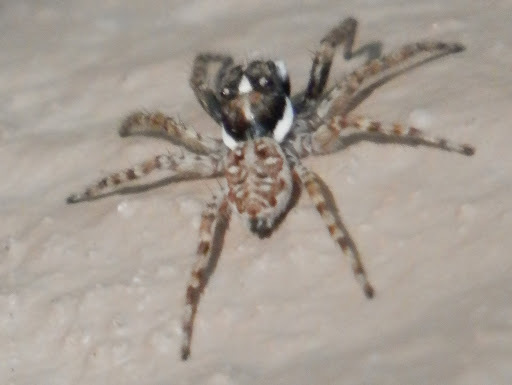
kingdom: Animalia
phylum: Arthropoda
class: Arachnida
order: Araneae
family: Salticidae
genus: Menemerus
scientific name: Menemerus semilimbatus
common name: Jumping spider
